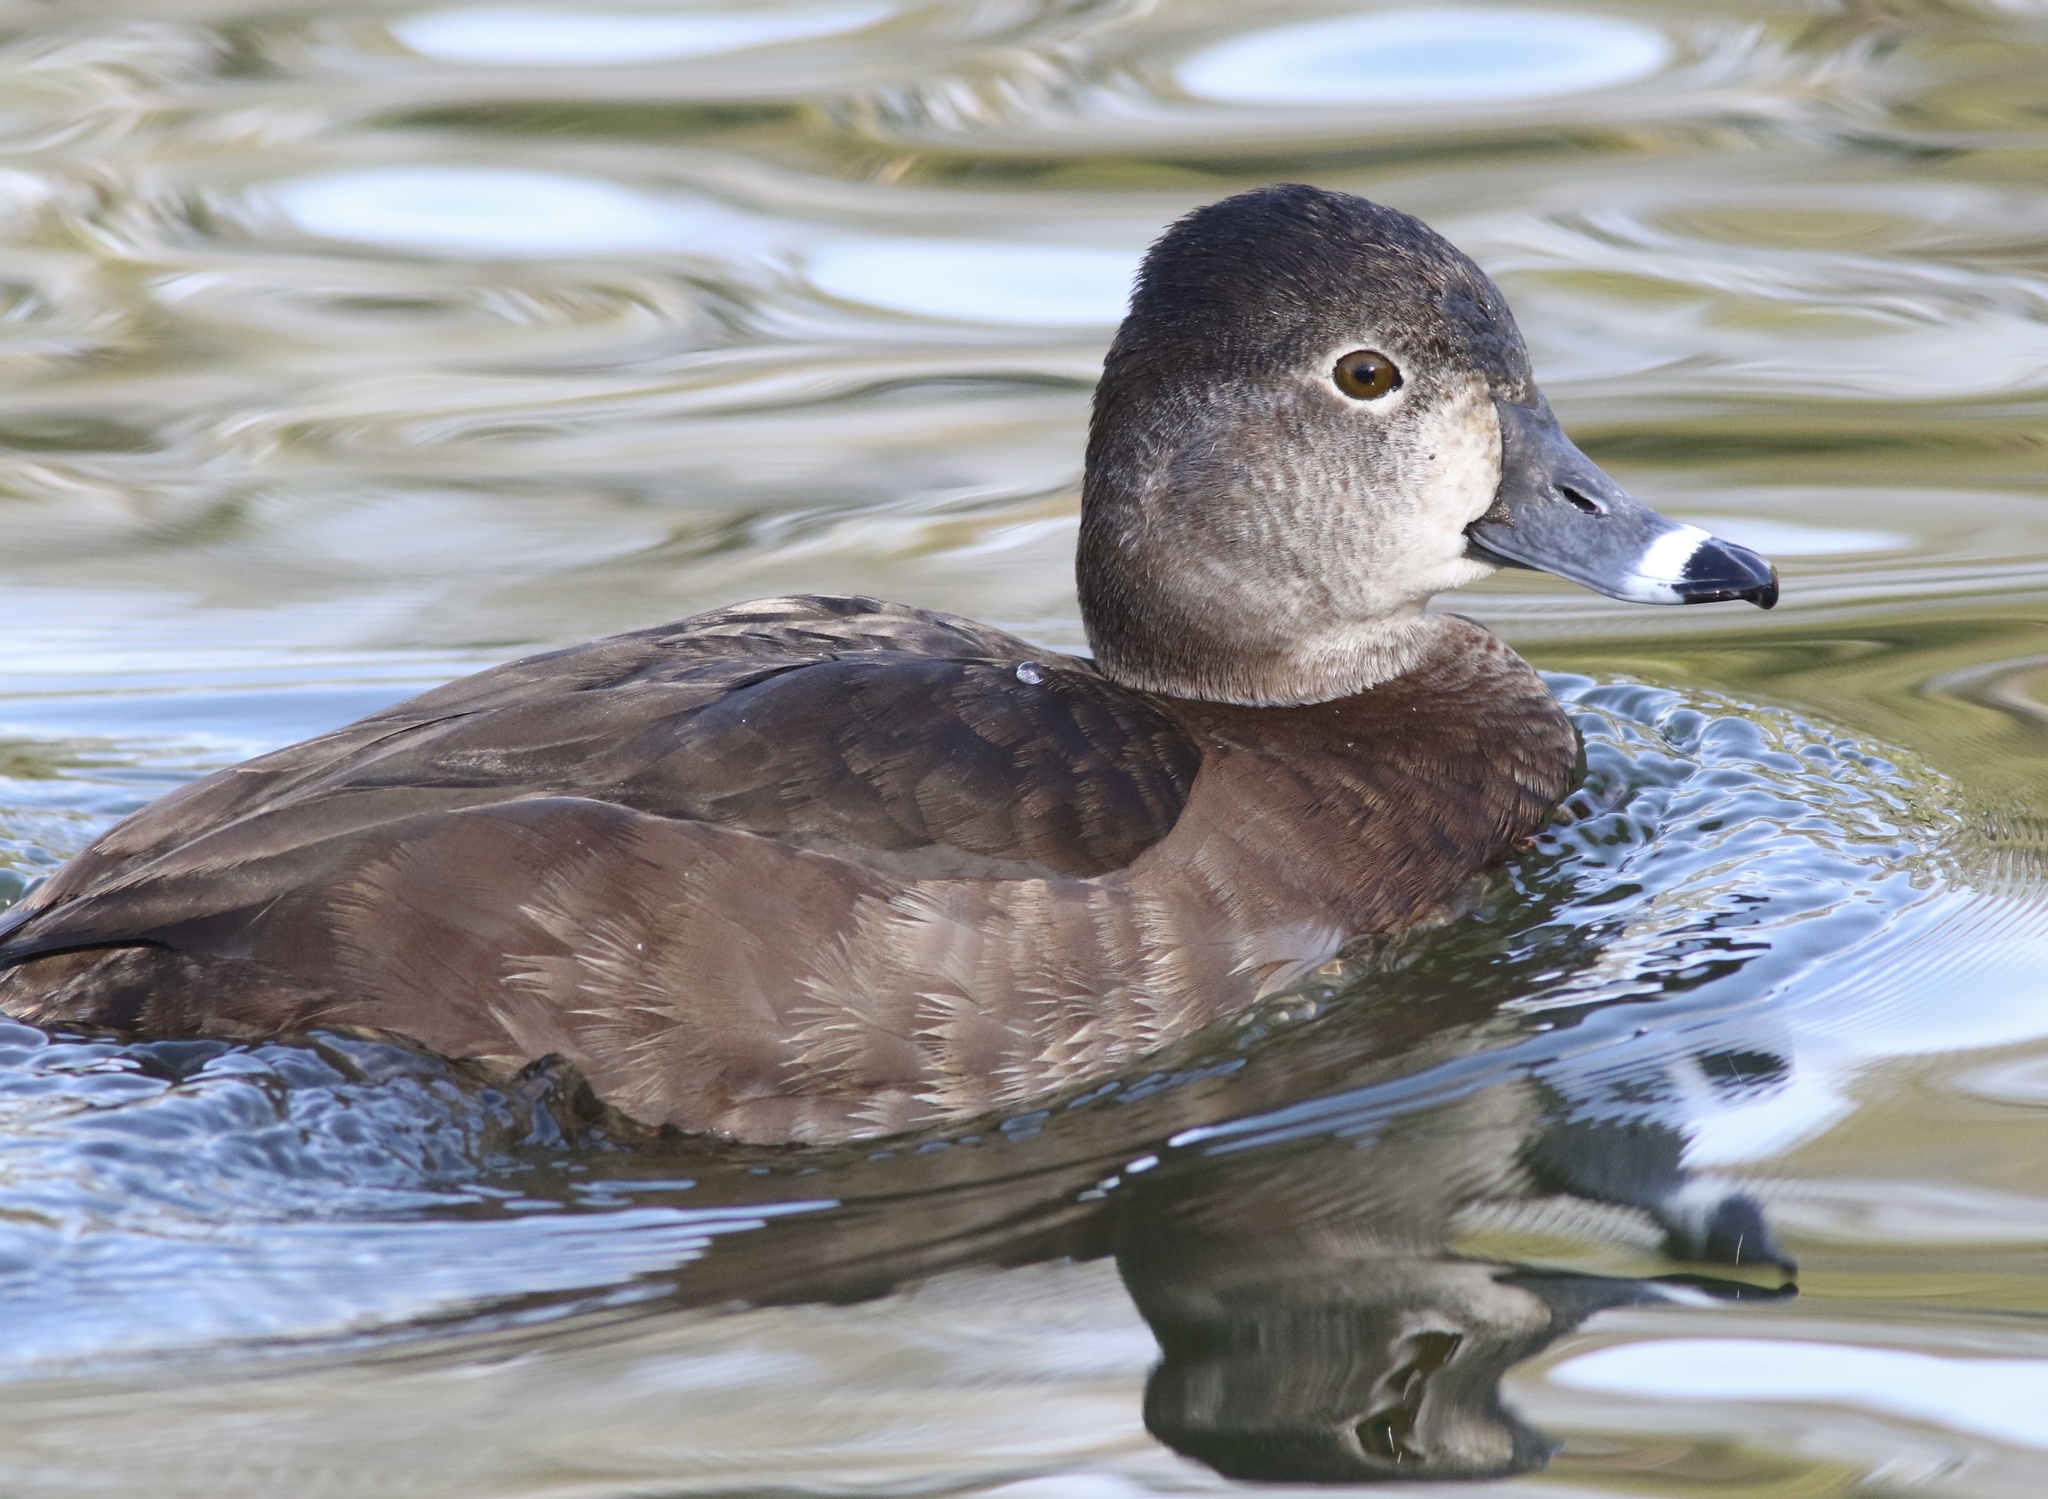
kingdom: Animalia
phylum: Chordata
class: Aves
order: Anseriformes
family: Anatidae
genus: Aythya
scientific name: Aythya collaris
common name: Ring-necked duck
